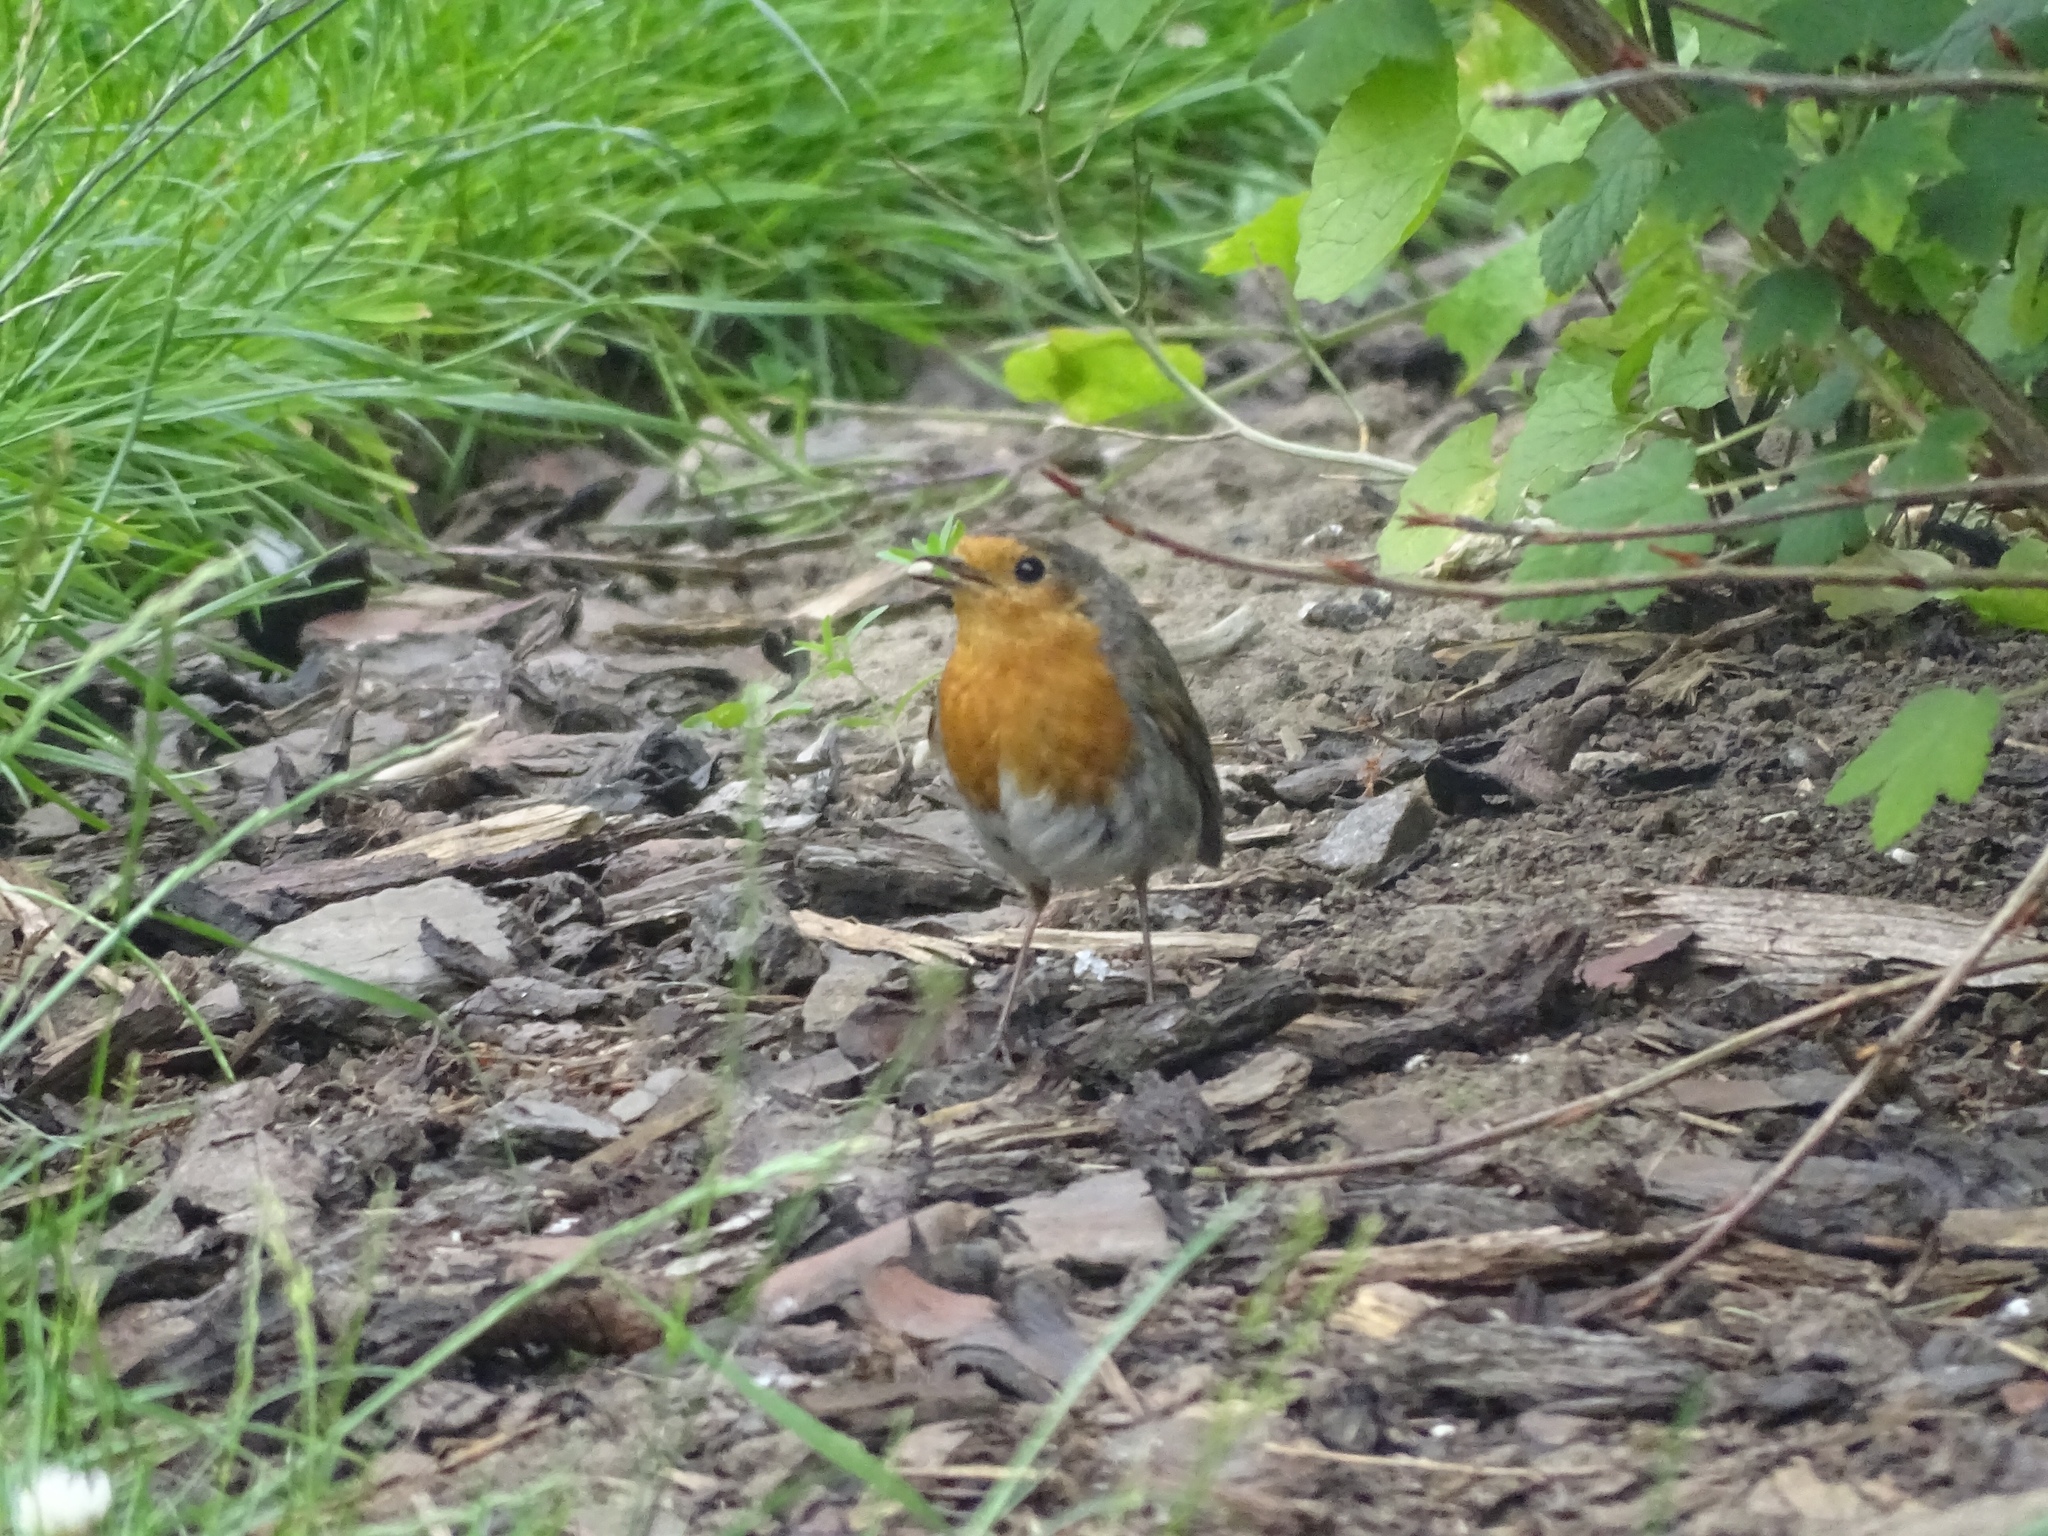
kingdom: Animalia
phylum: Chordata
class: Aves
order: Passeriformes
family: Muscicapidae
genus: Erithacus
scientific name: Erithacus rubecula
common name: European robin
